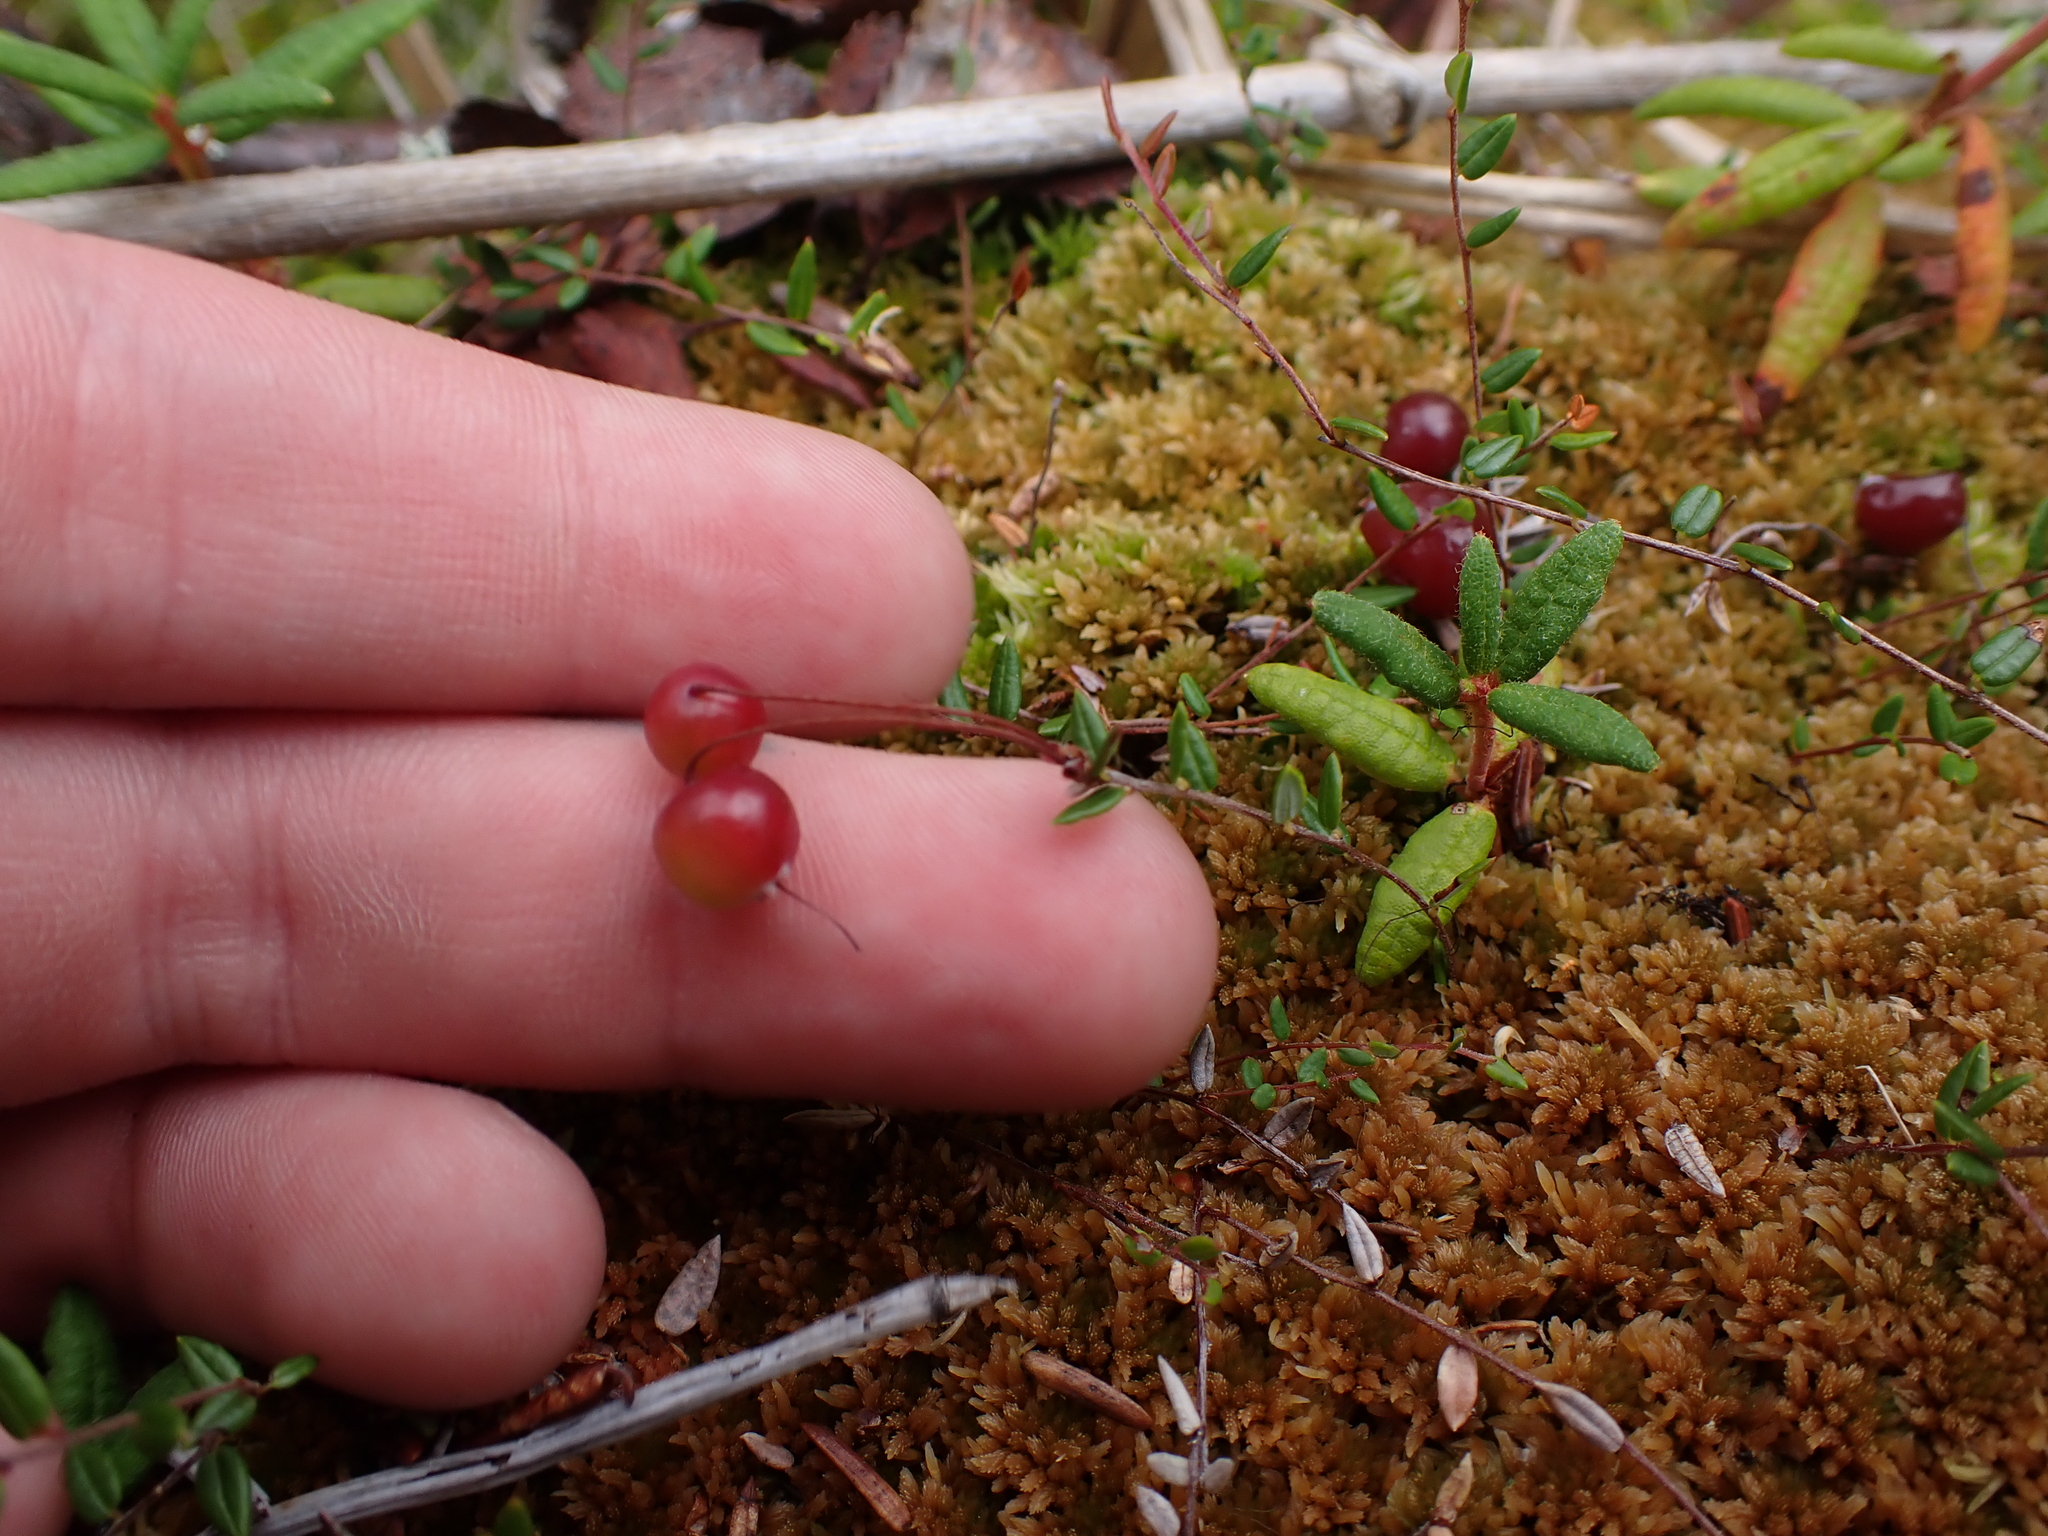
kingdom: Plantae
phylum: Tracheophyta
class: Magnoliopsida
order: Ericales
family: Ericaceae
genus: Vaccinium
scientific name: Vaccinium oxycoccos
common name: Cranberry
